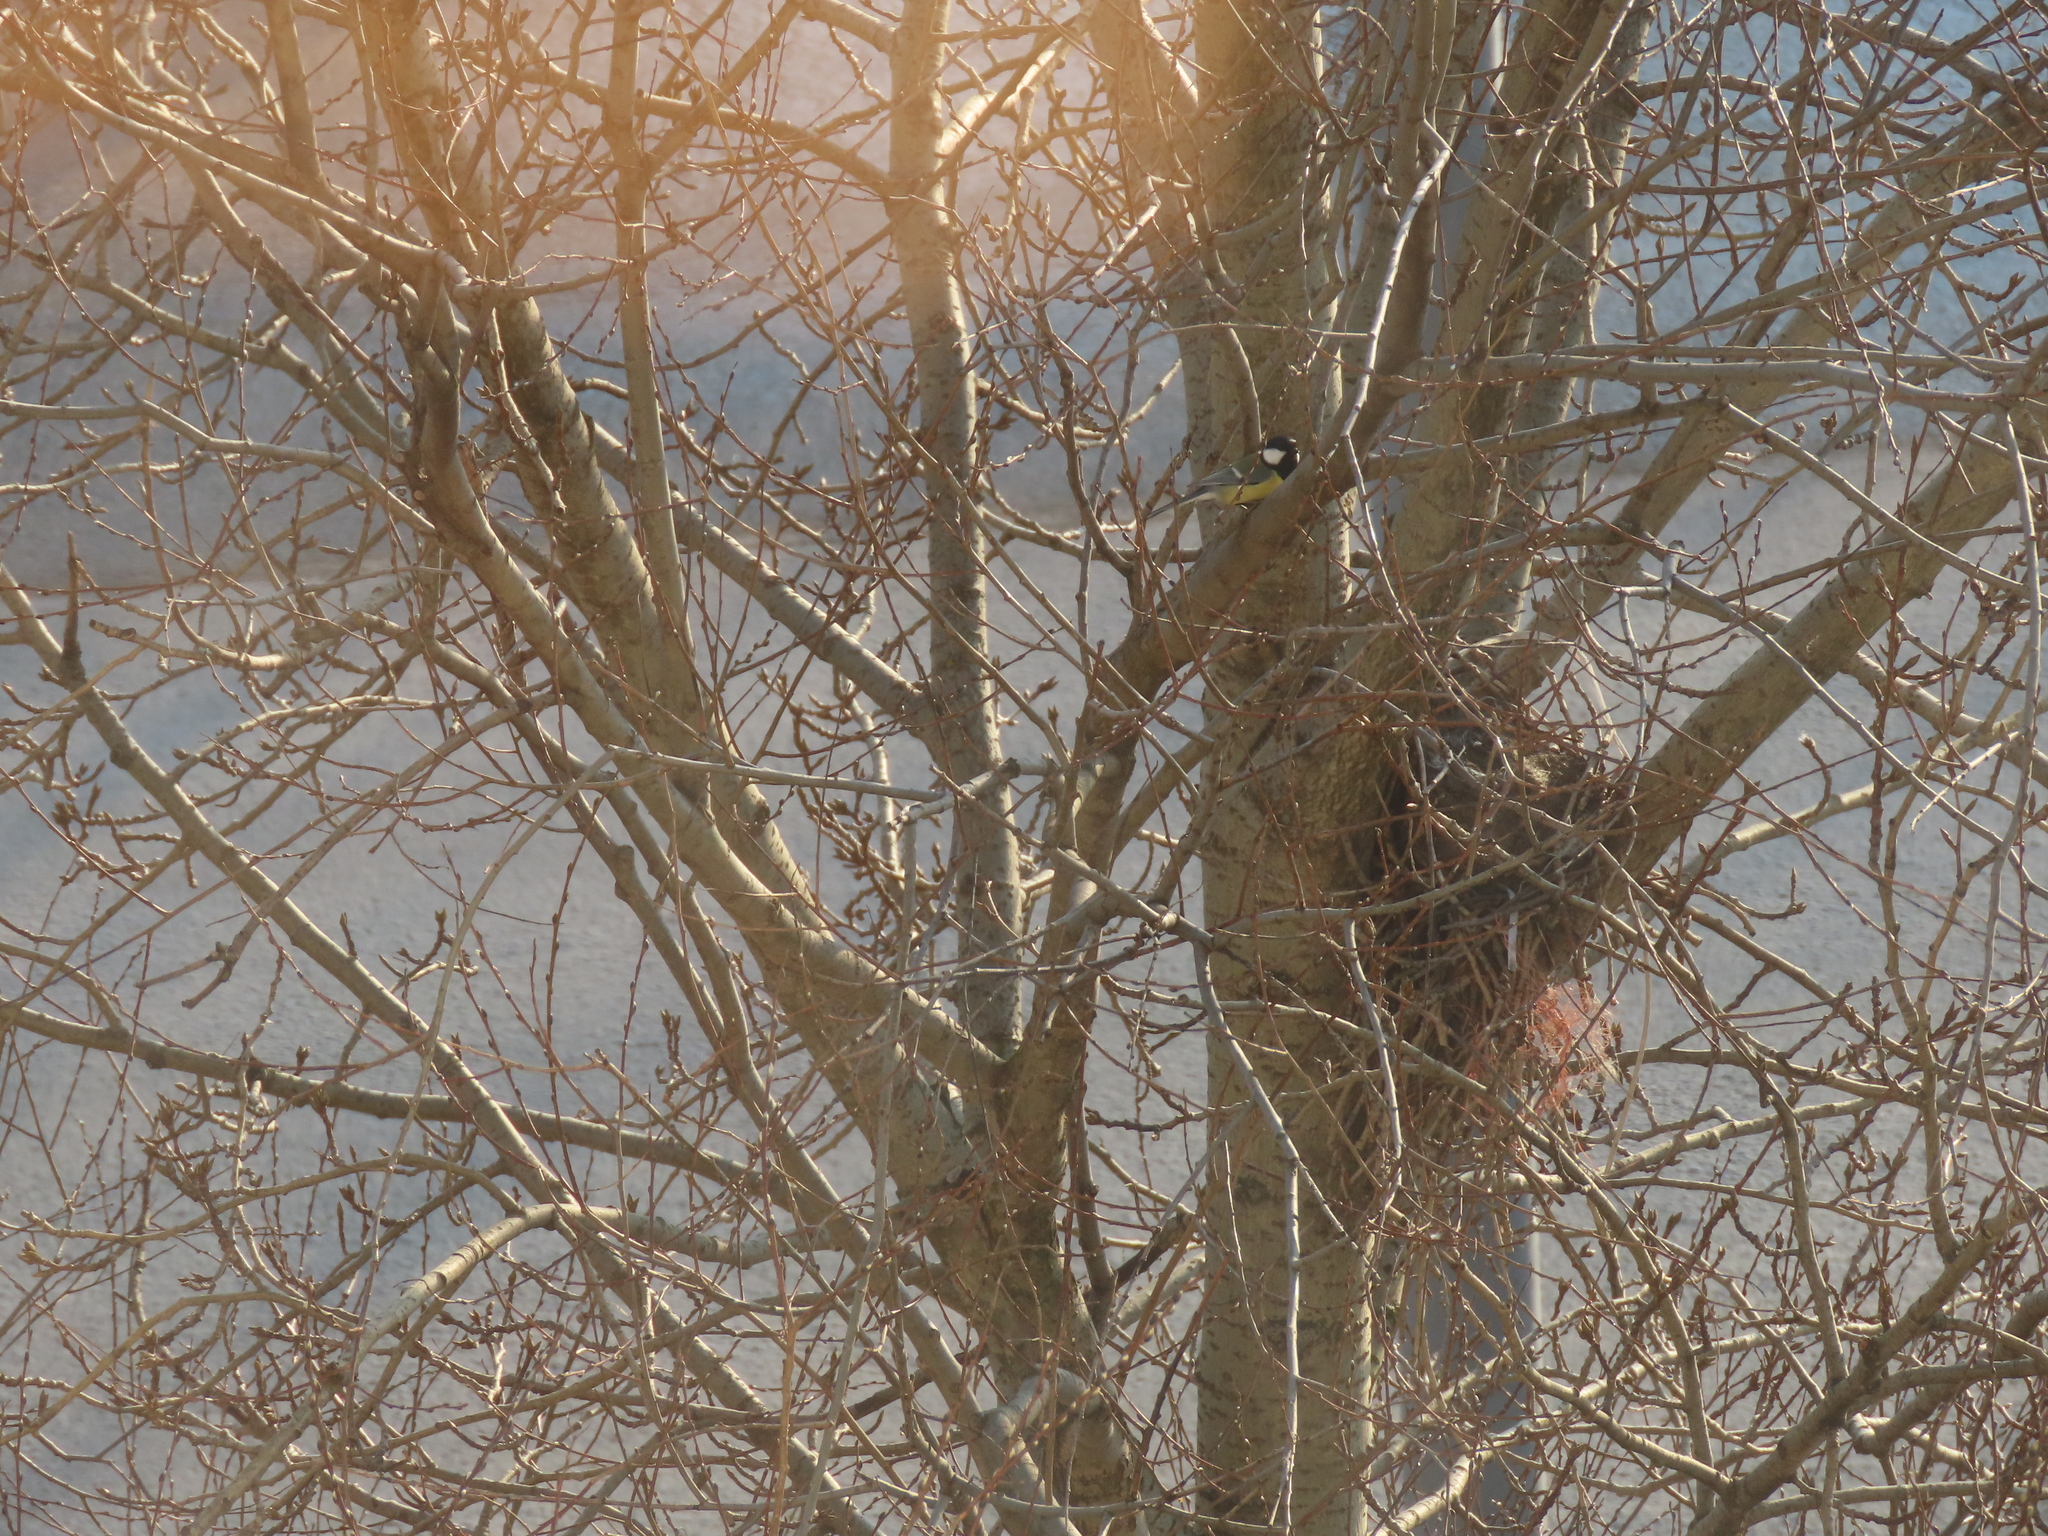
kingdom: Animalia
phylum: Chordata
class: Aves
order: Passeriformes
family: Paridae
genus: Parus
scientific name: Parus major
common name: Great tit
